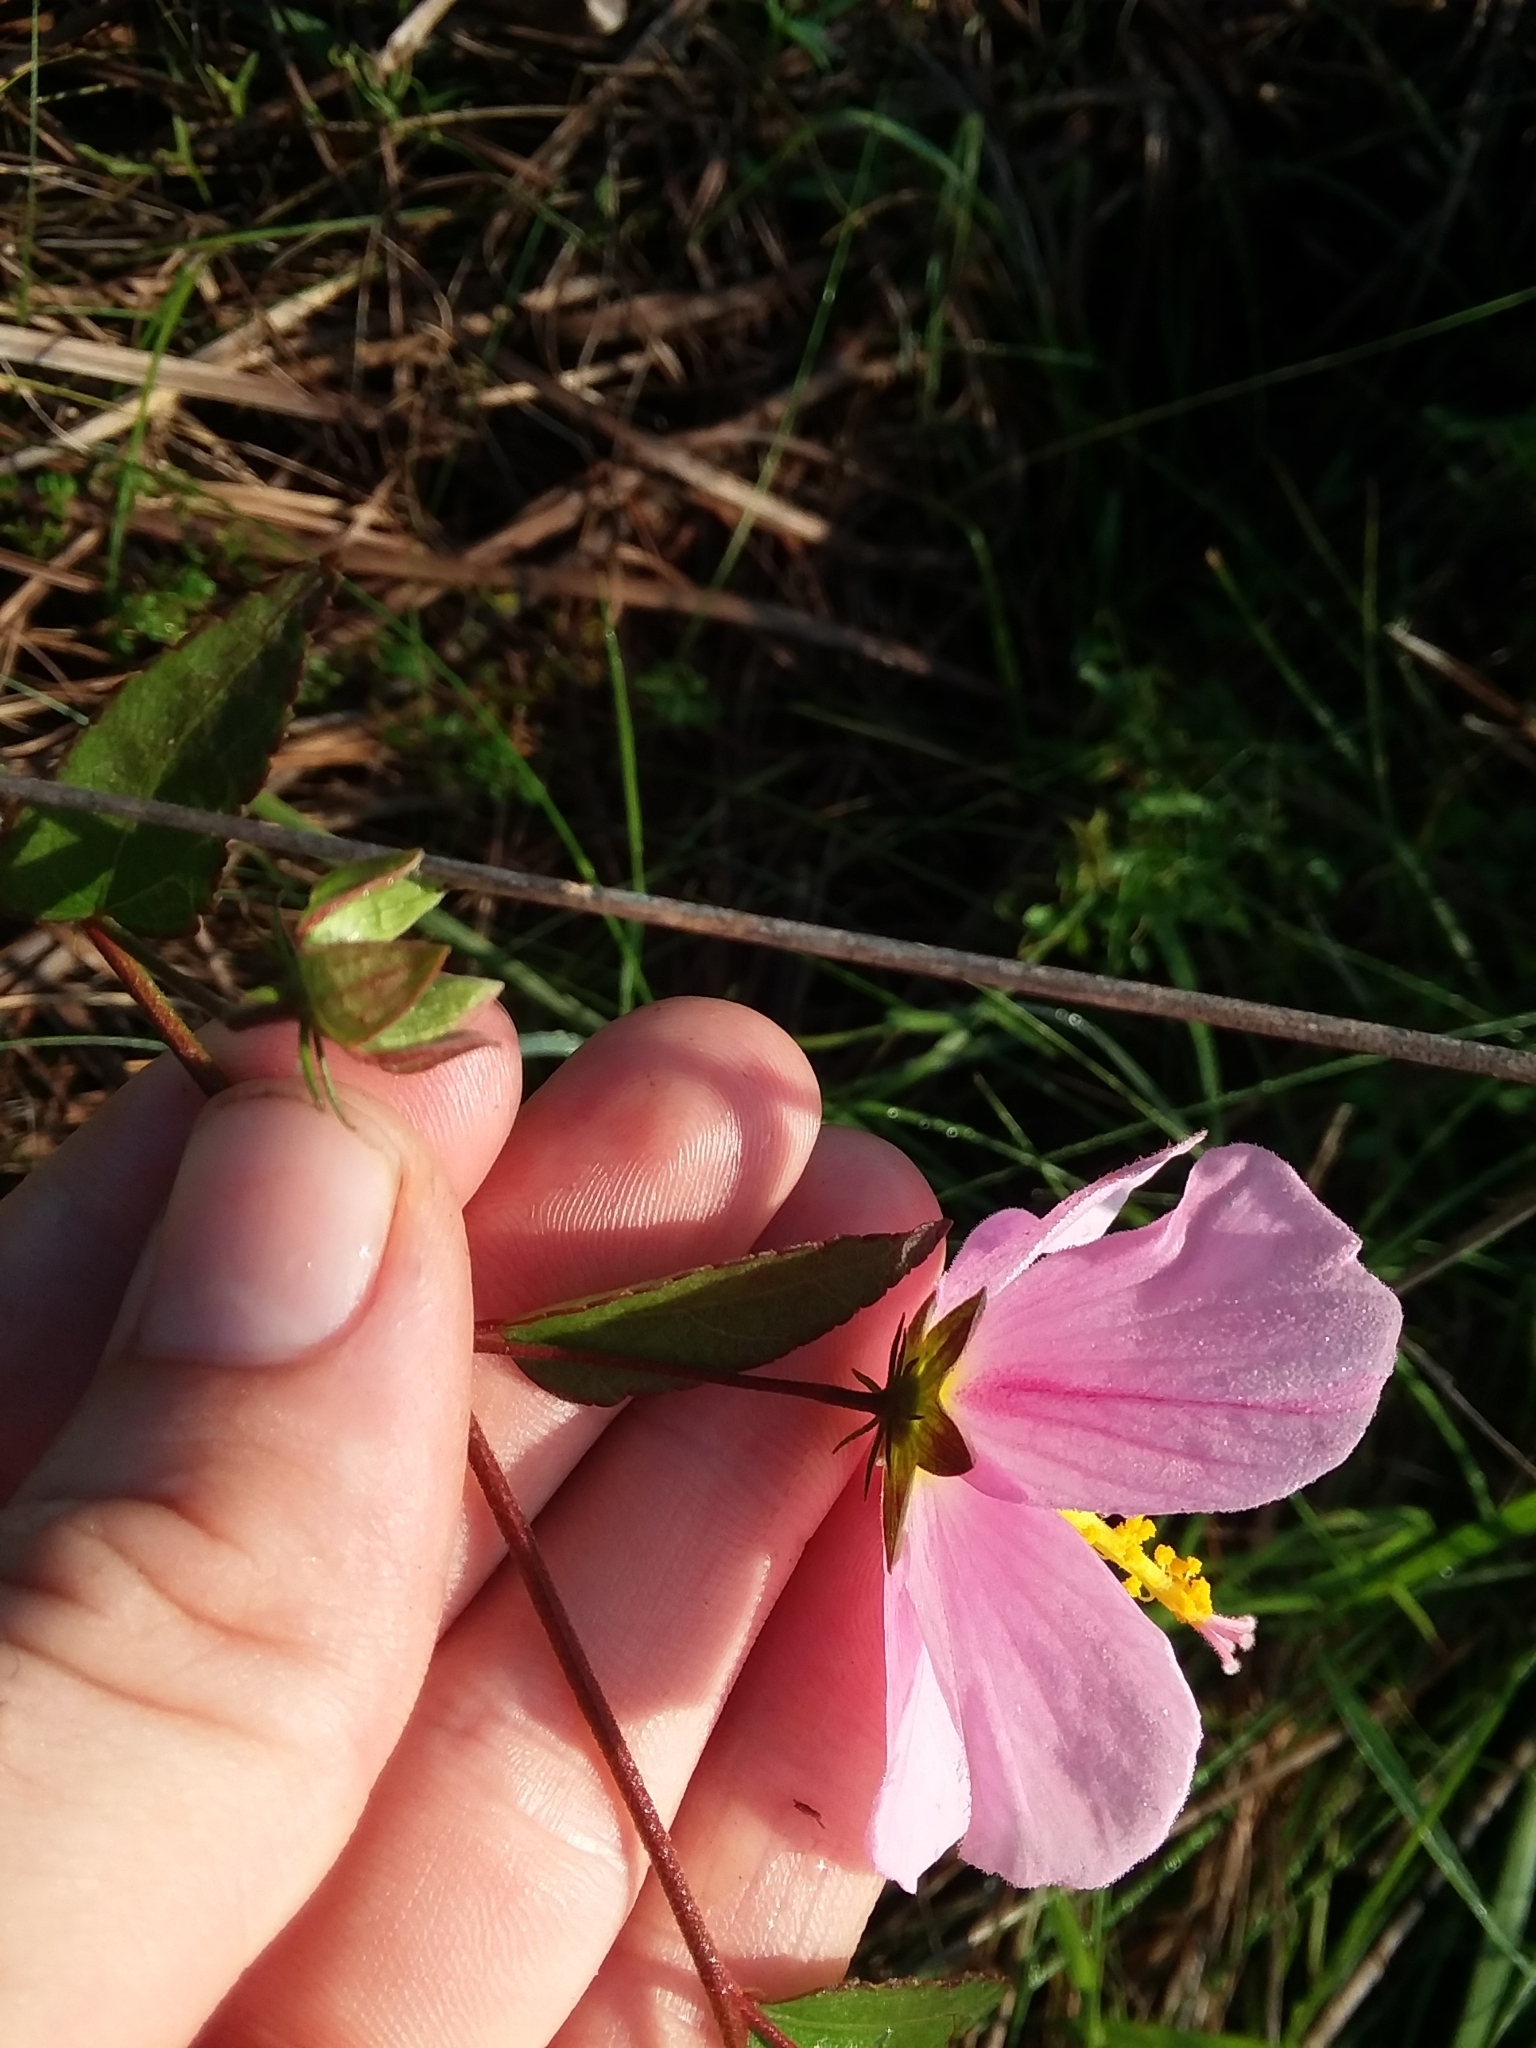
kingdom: Plantae
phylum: Tracheophyta
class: Magnoliopsida
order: Malvales
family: Malvaceae
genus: Kosteletzkya
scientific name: Kosteletzkya pentacarpos
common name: Virginia saltmarsh mallow
